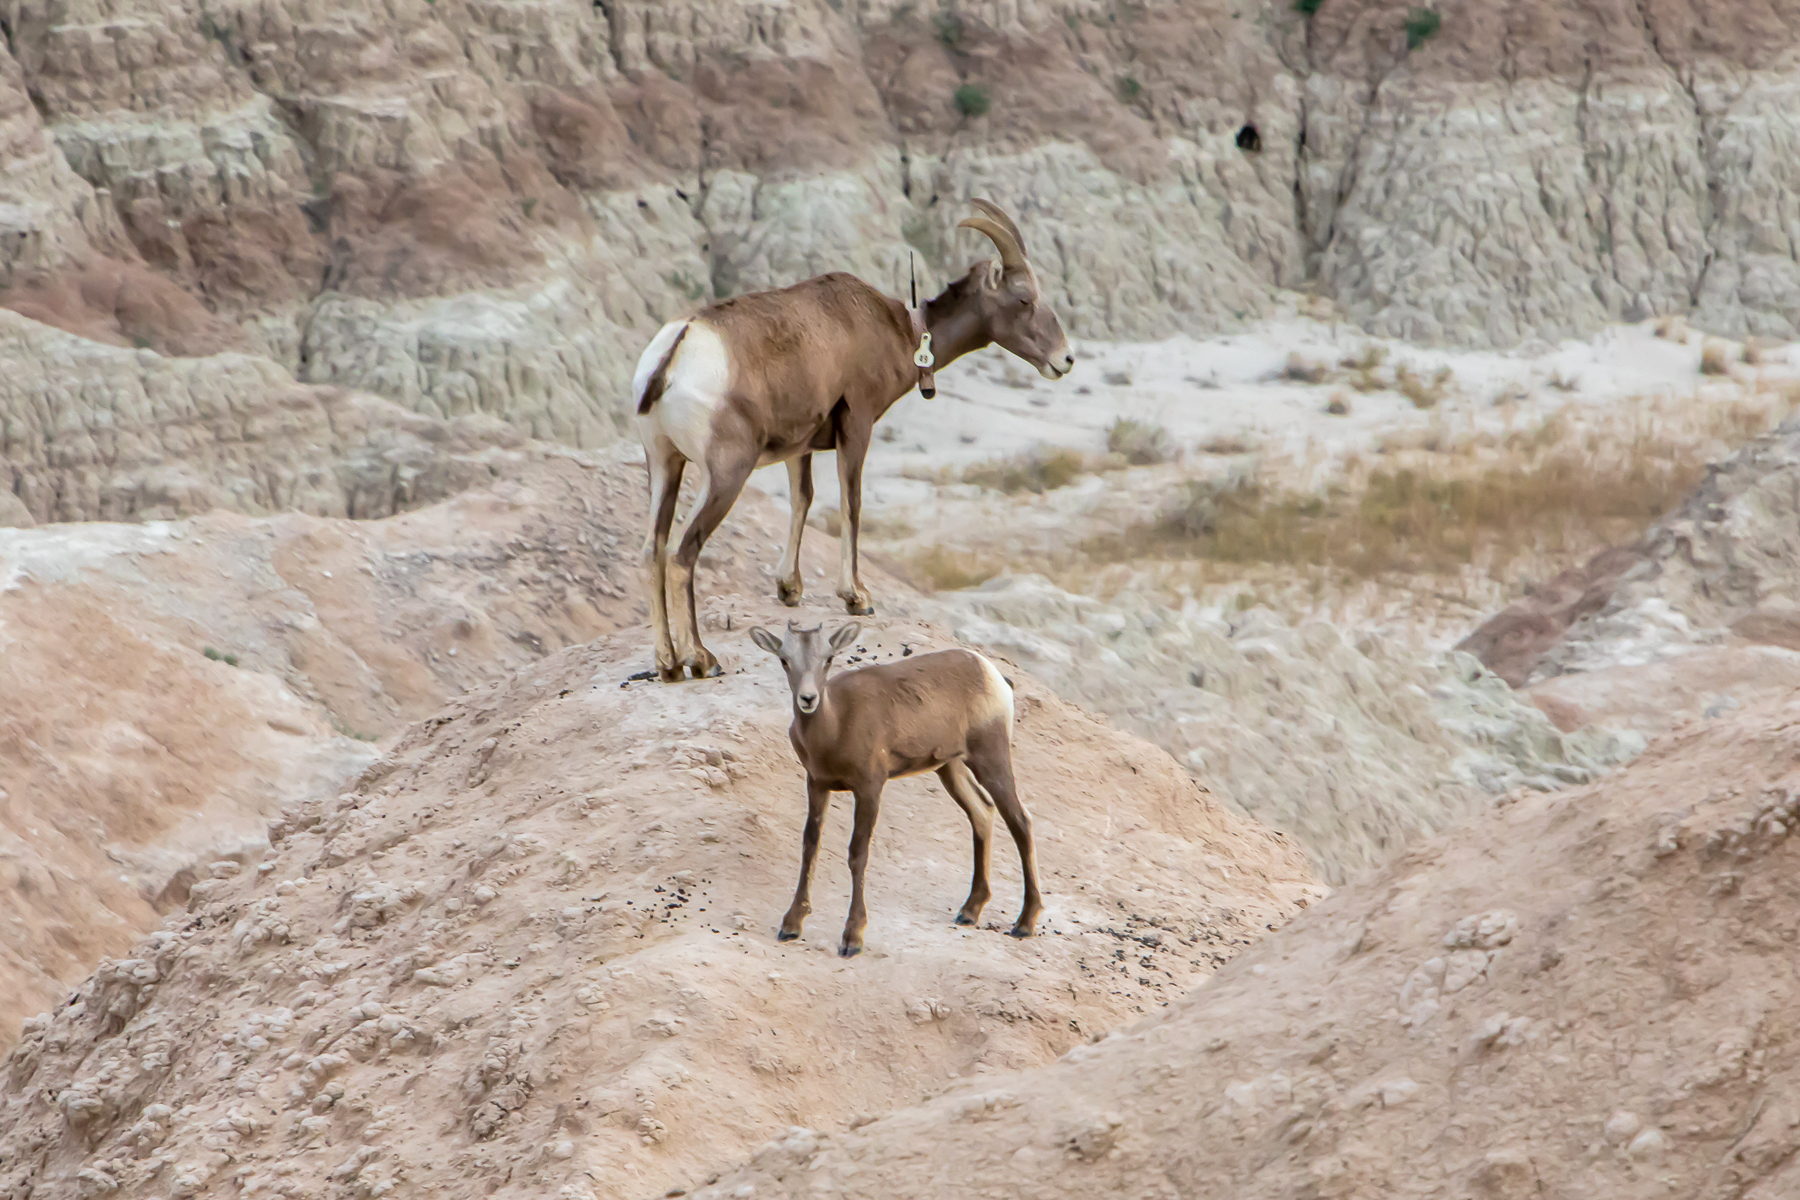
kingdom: Animalia
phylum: Chordata
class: Mammalia
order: Artiodactyla
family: Bovidae
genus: Ovis
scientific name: Ovis canadensis
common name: Bighorn sheep
